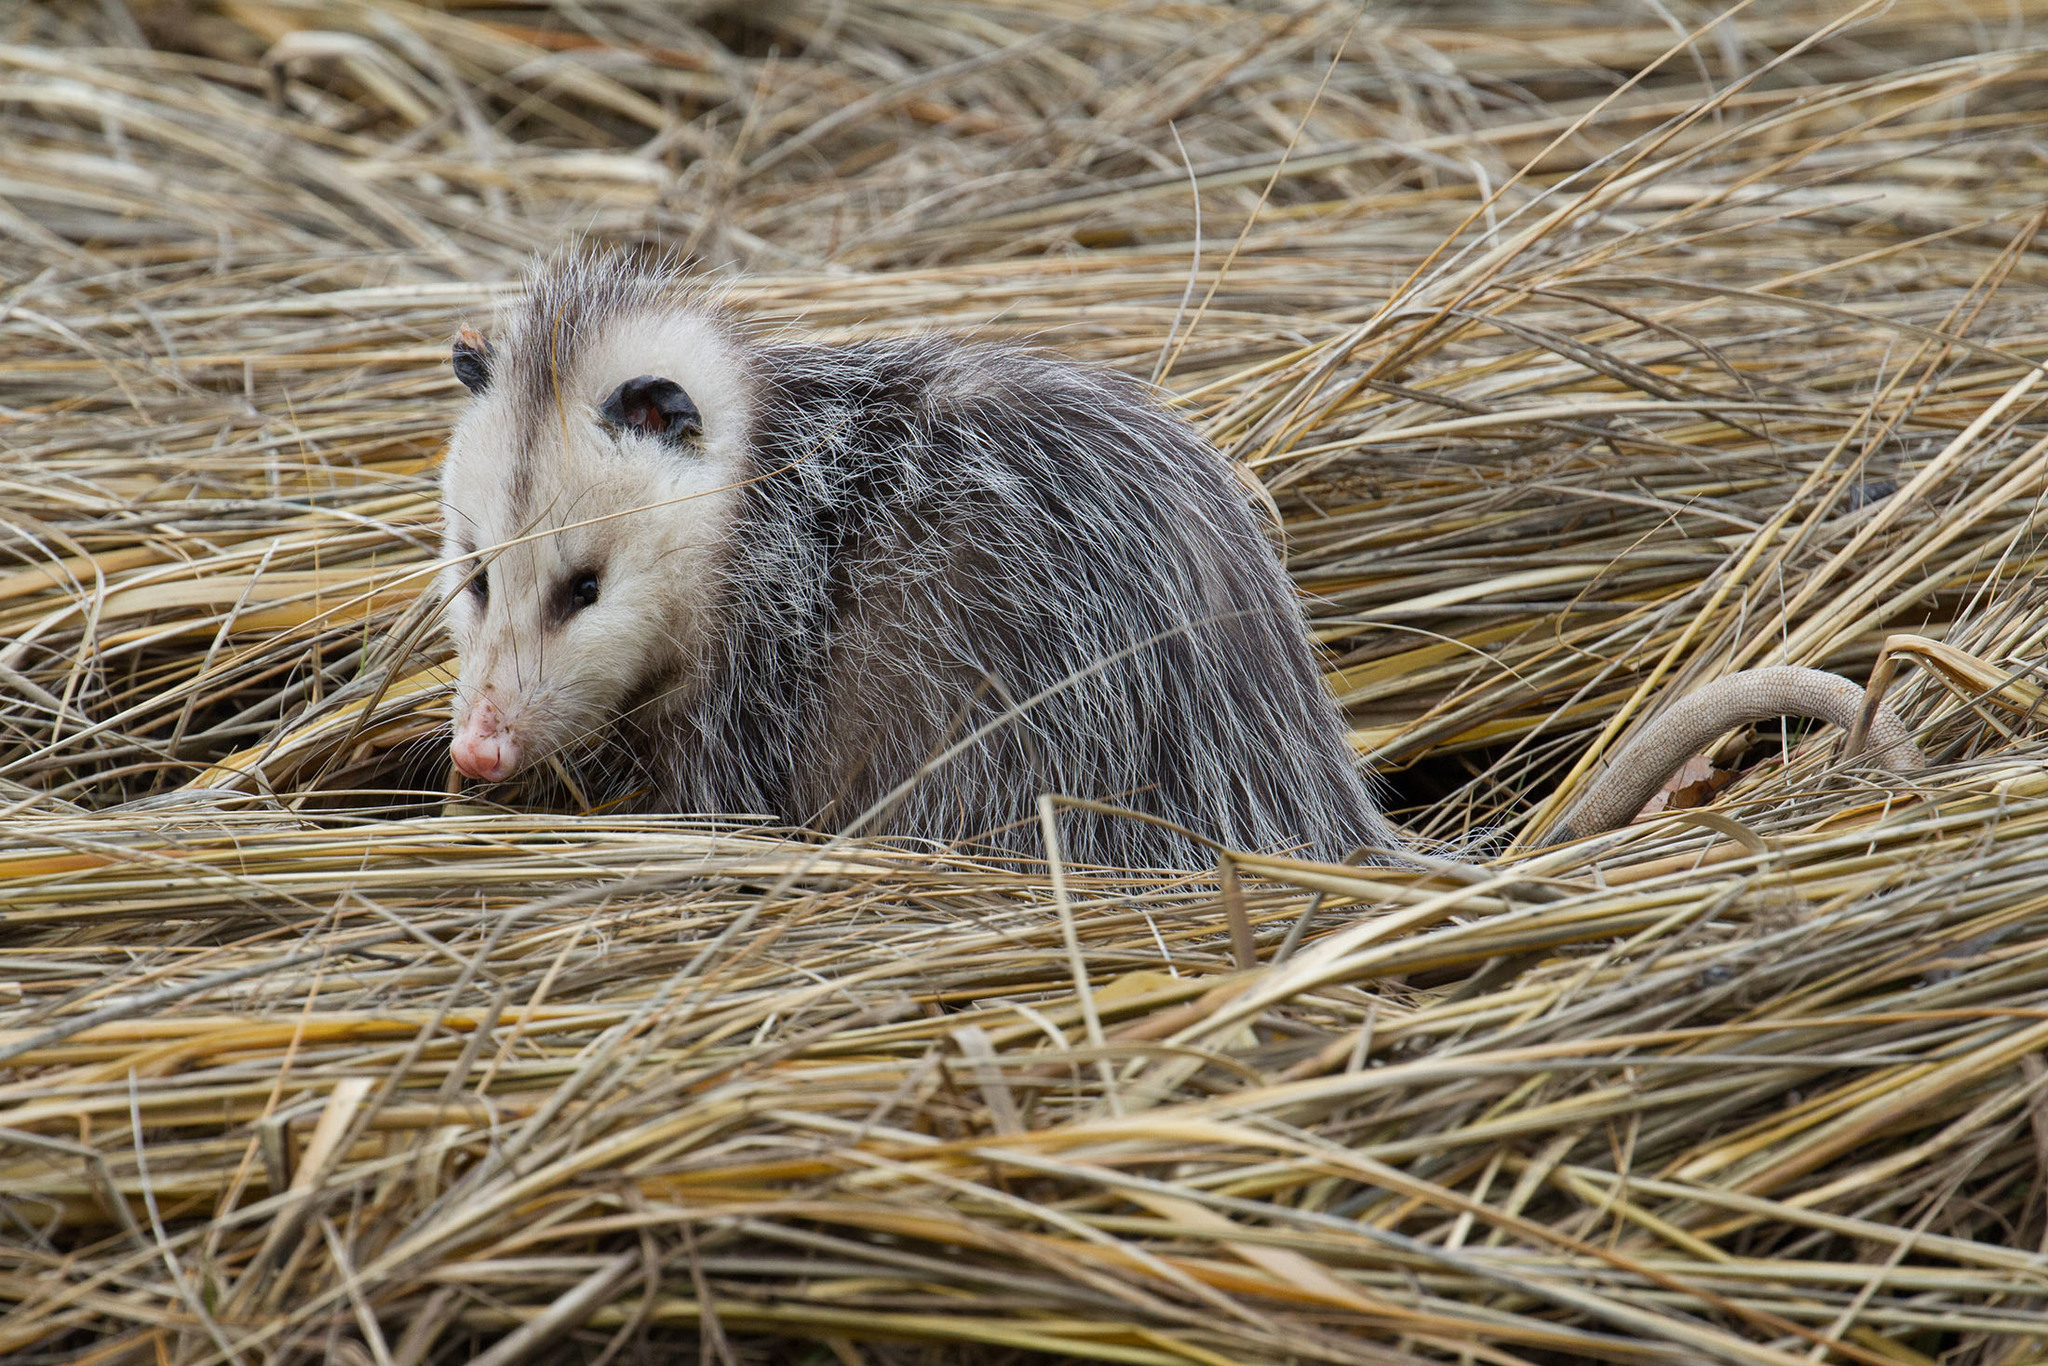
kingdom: Animalia
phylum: Chordata
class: Mammalia
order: Didelphimorphia
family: Didelphidae
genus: Didelphis
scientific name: Didelphis virginiana
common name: Virginia opossum
